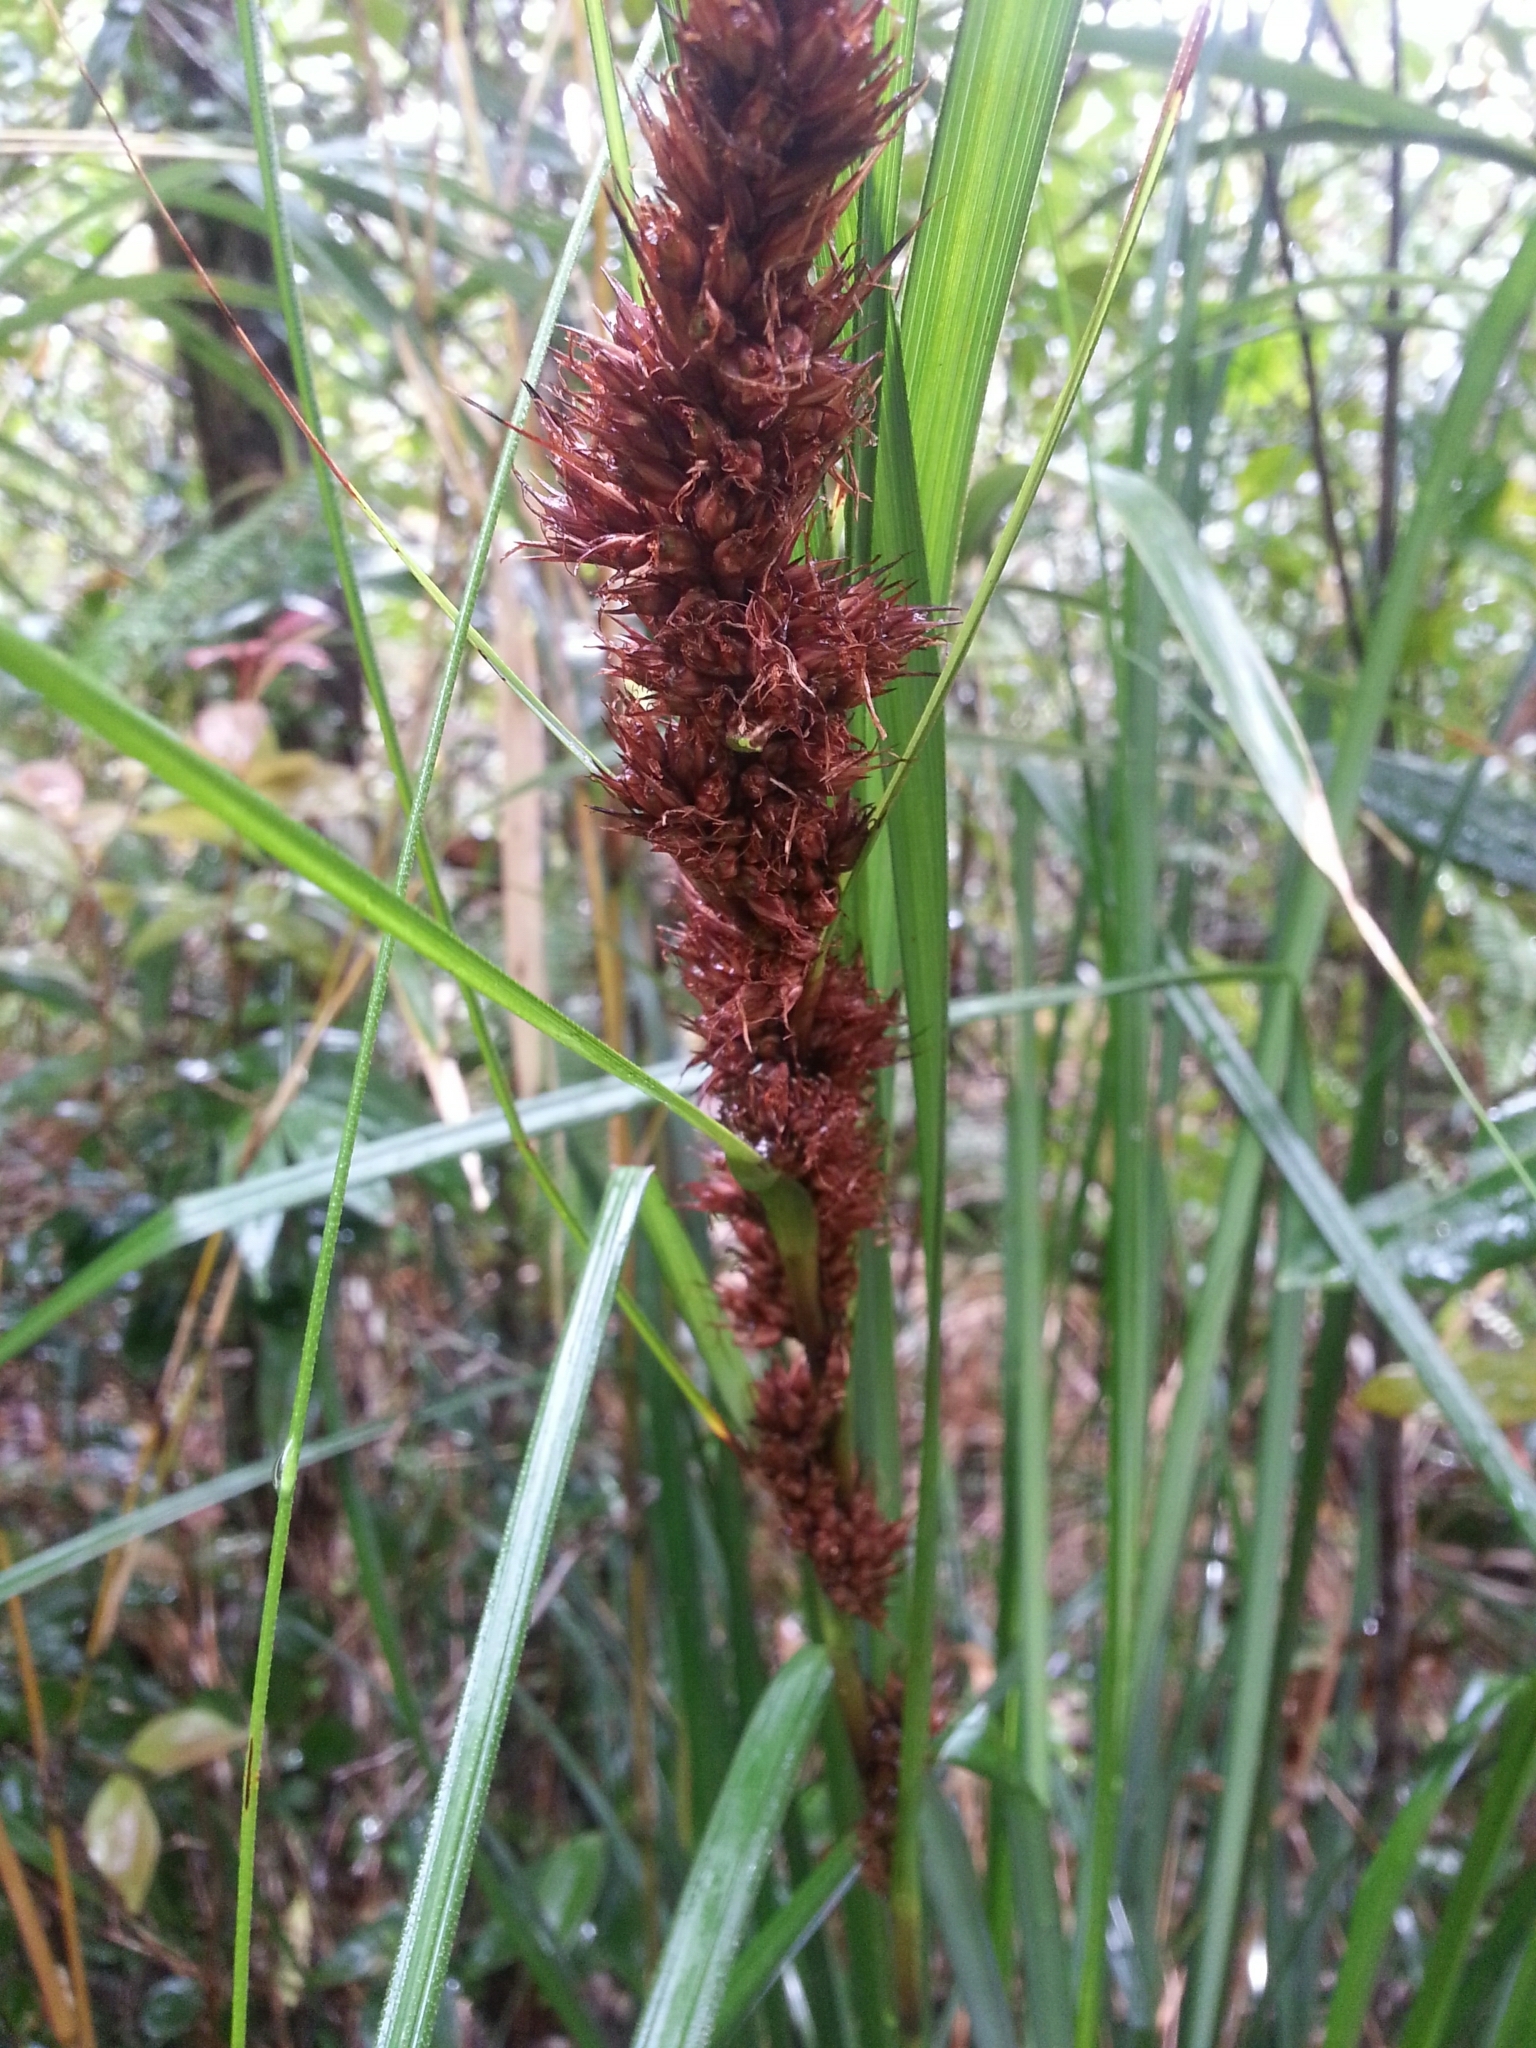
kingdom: Plantae
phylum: Tracheophyta
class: Liliopsida
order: Poales
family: Cyperaceae
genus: Gahnia
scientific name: Gahnia tristis
